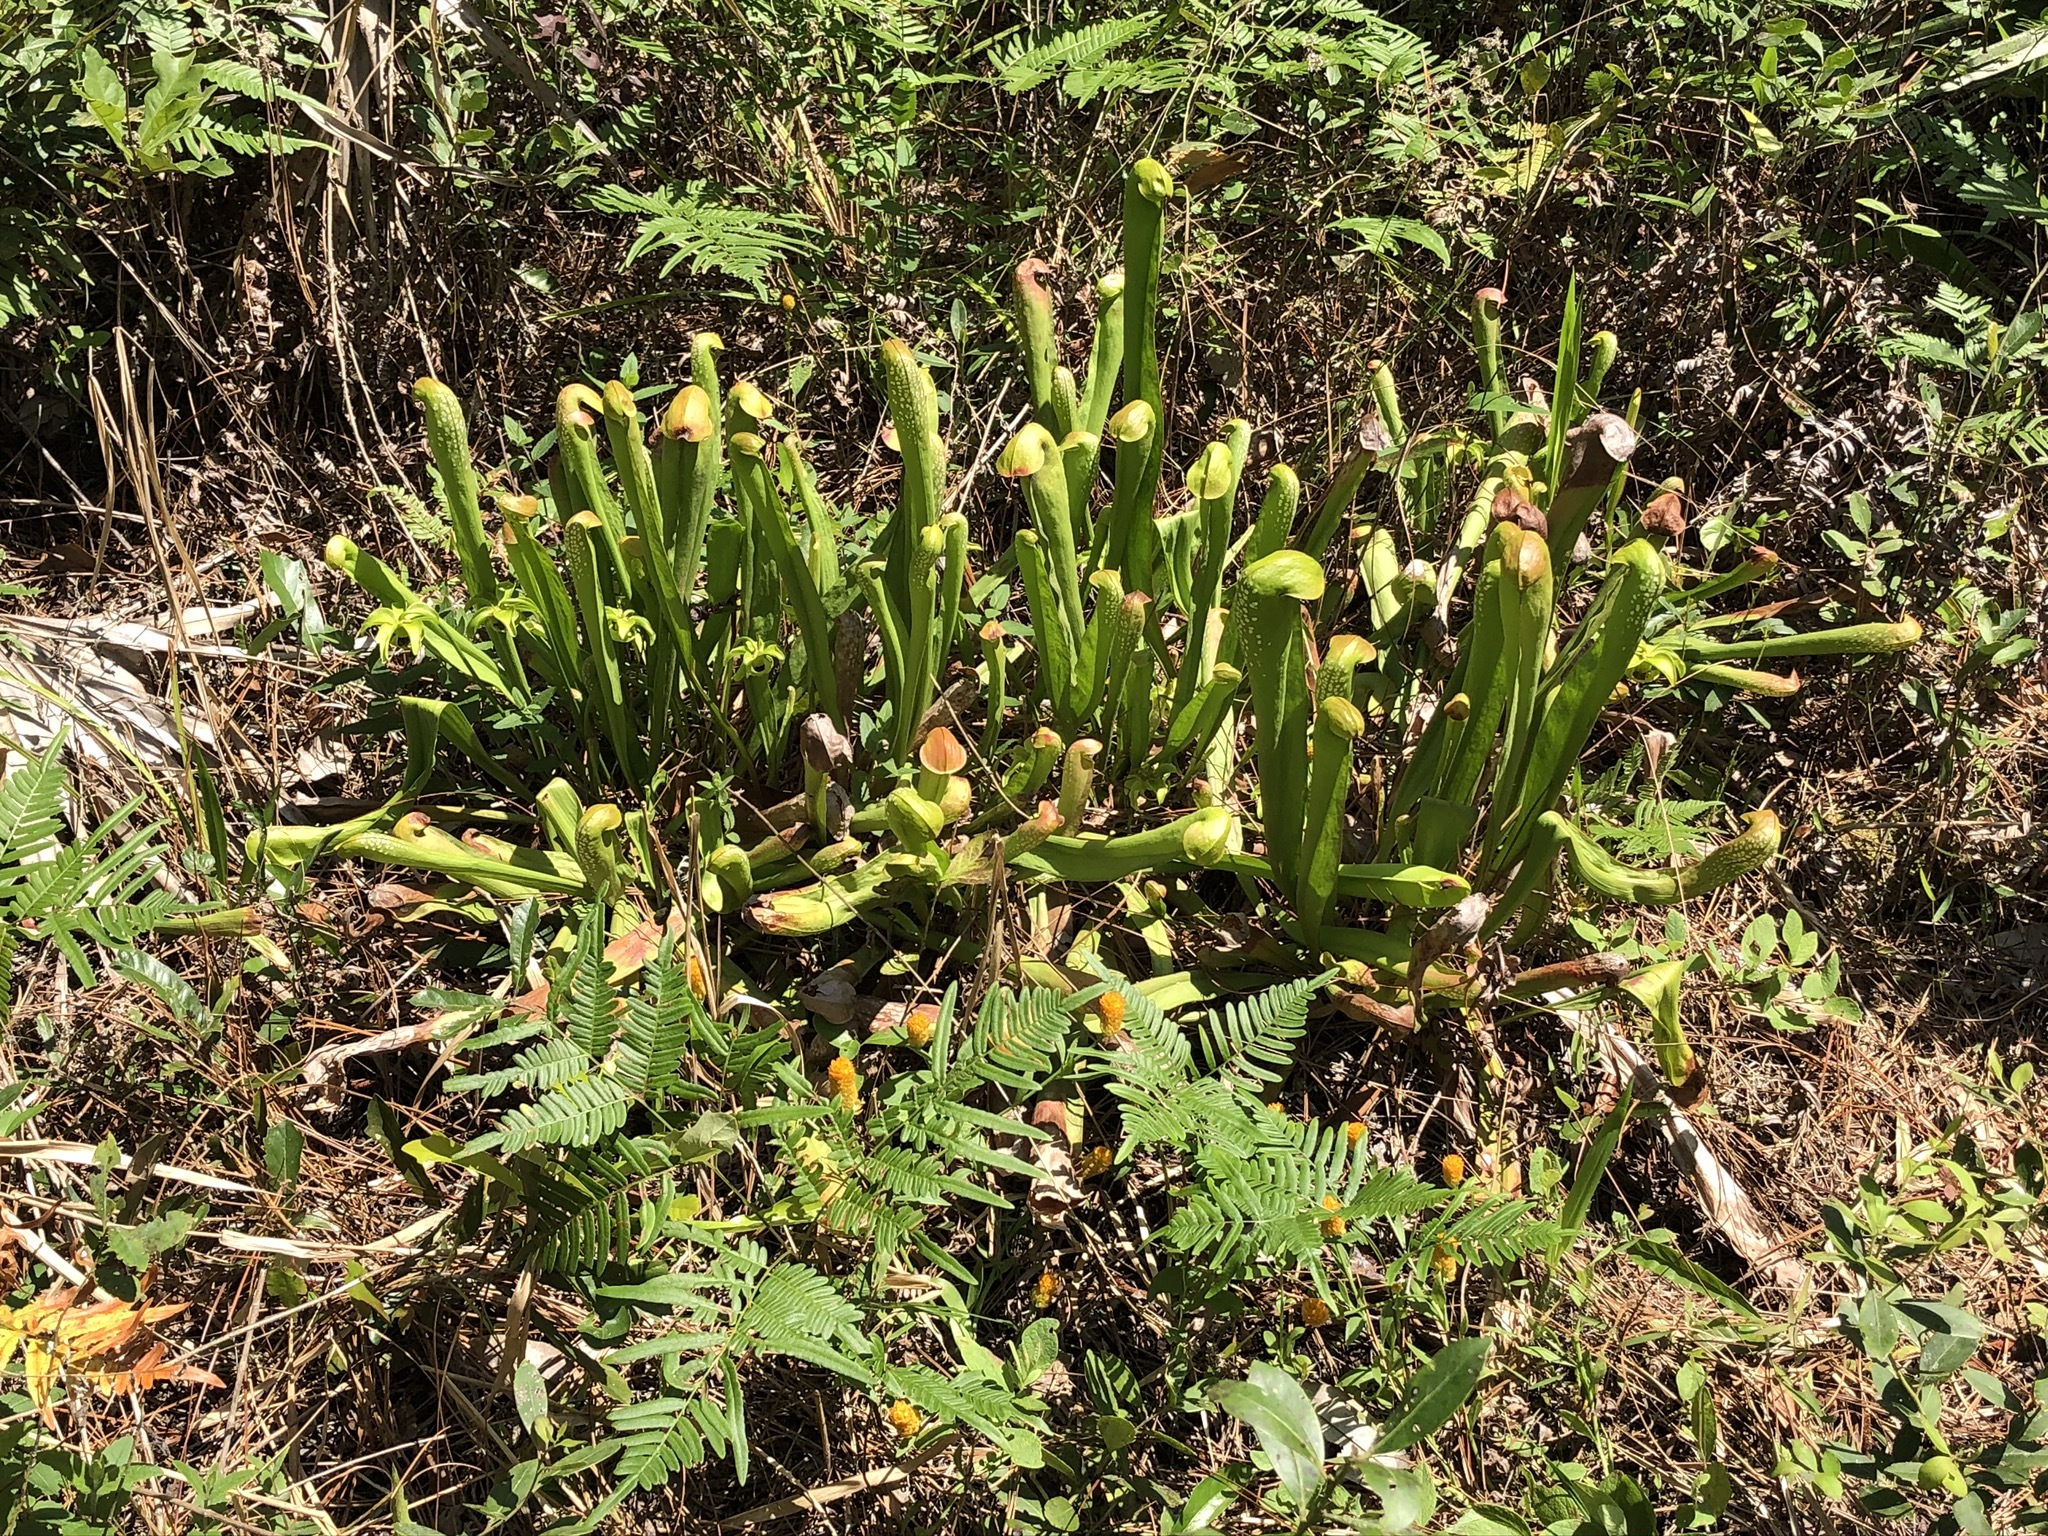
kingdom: Plantae
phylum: Tracheophyta
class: Magnoliopsida
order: Ericales
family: Sarraceniaceae
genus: Sarracenia
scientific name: Sarracenia minor
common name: Rainhat-trumpet
